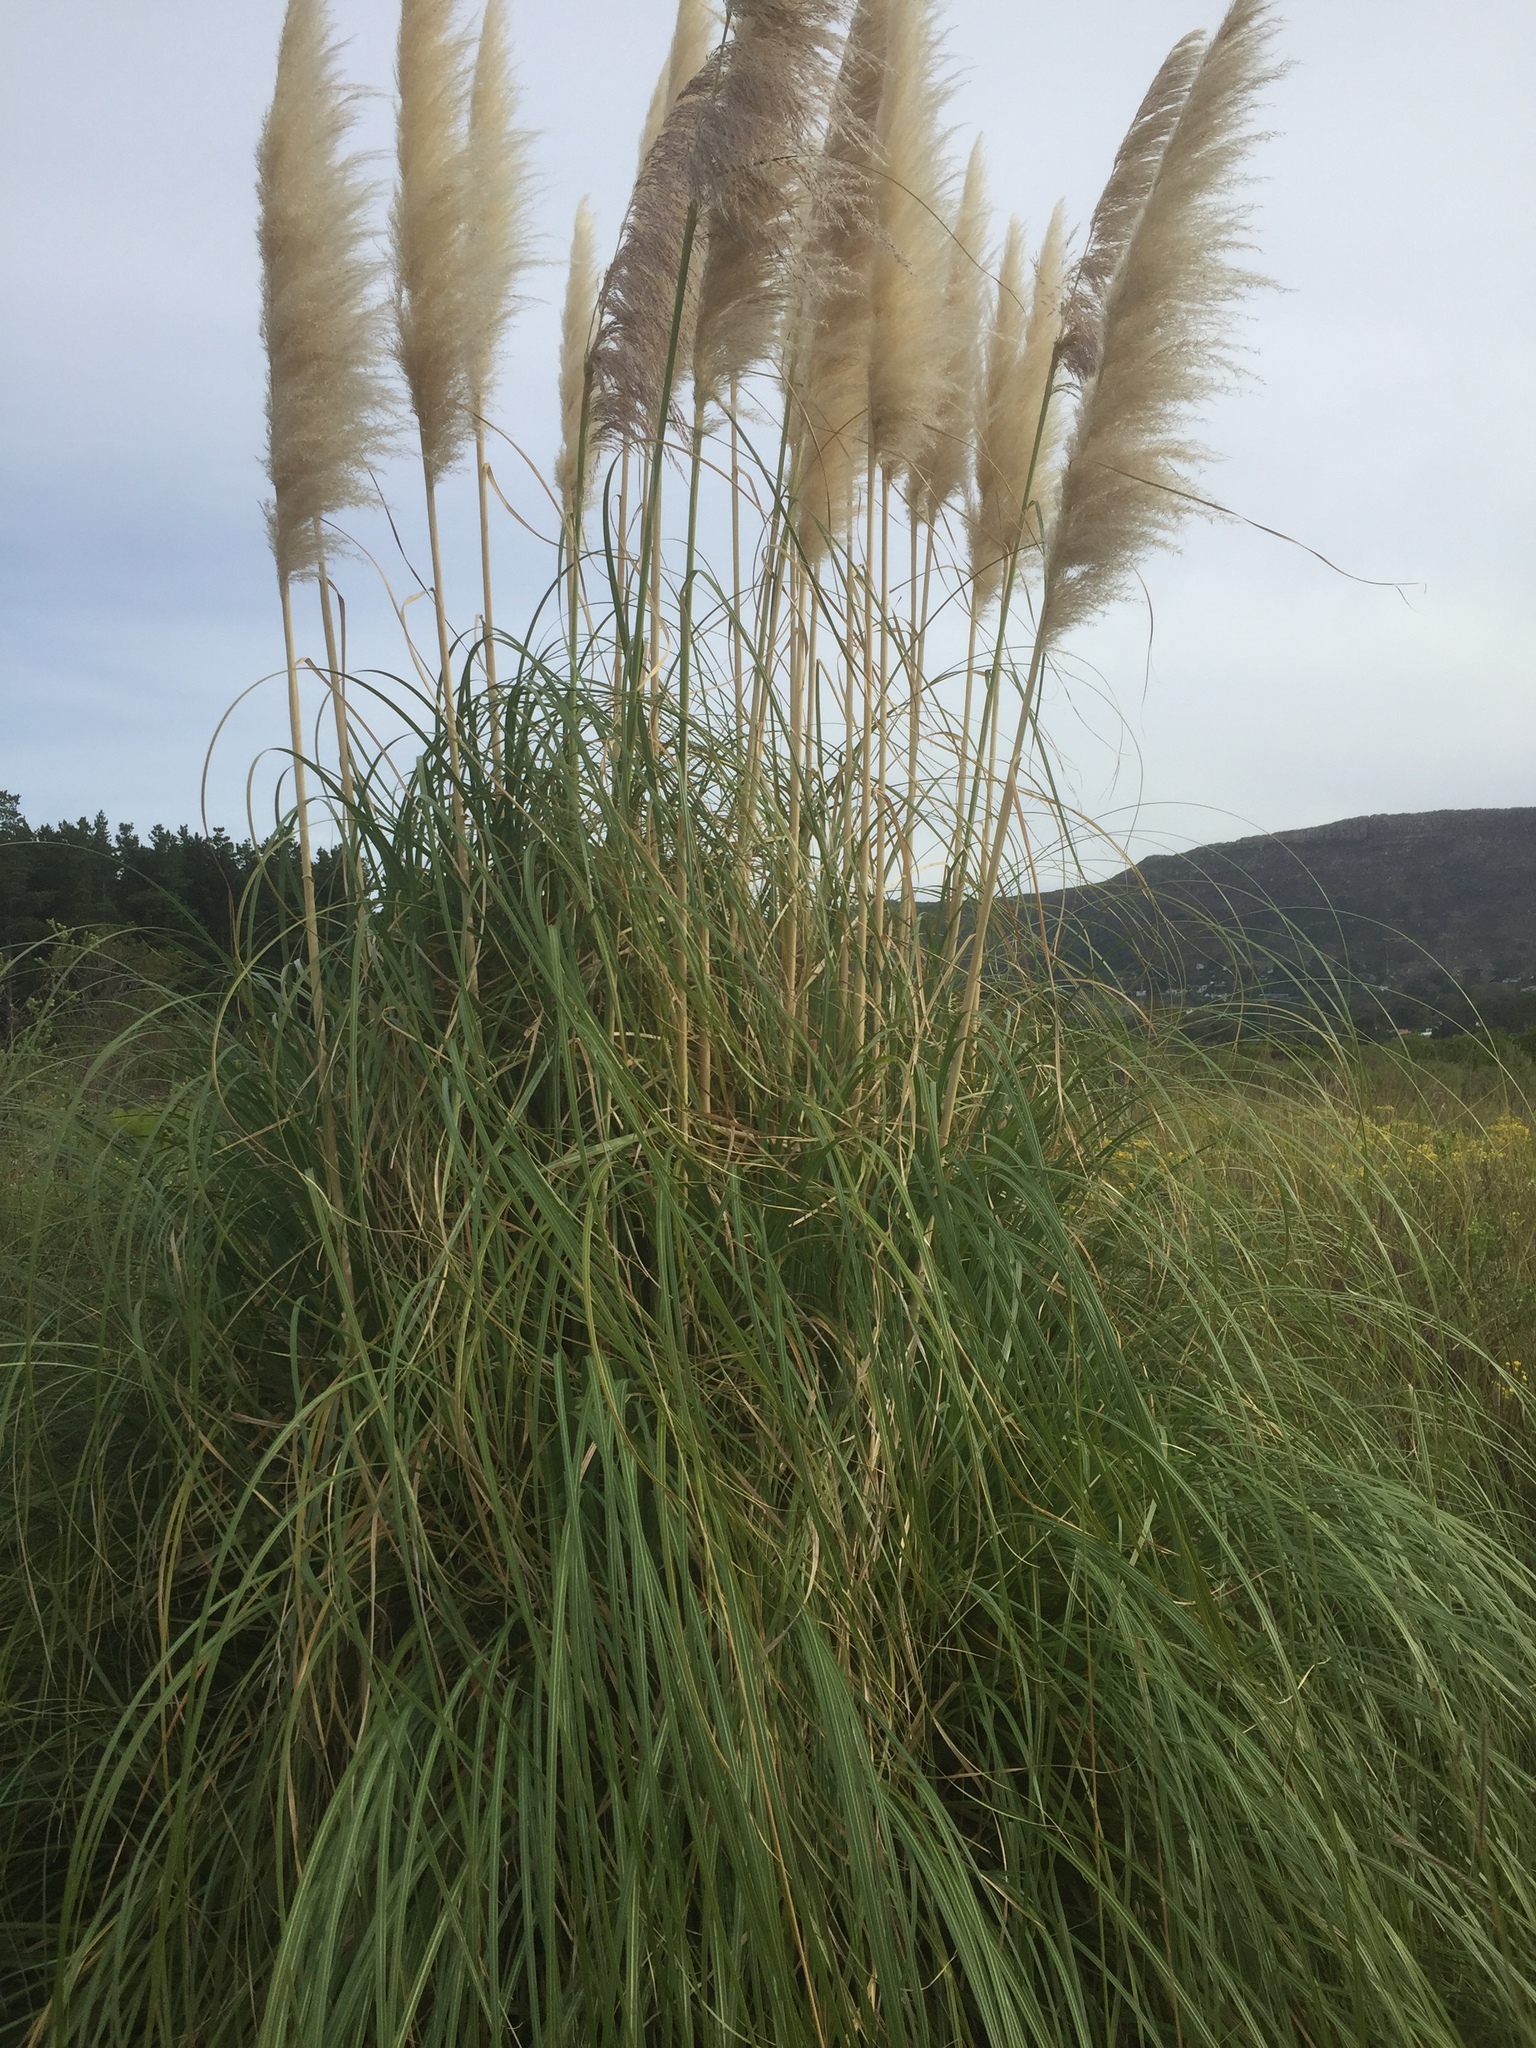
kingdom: Plantae
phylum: Tracheophyta
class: Liliopsida
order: Poales
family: Poaceae
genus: Cortaderia
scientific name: Cortaderia selloana
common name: Uruguayan pampas grass
